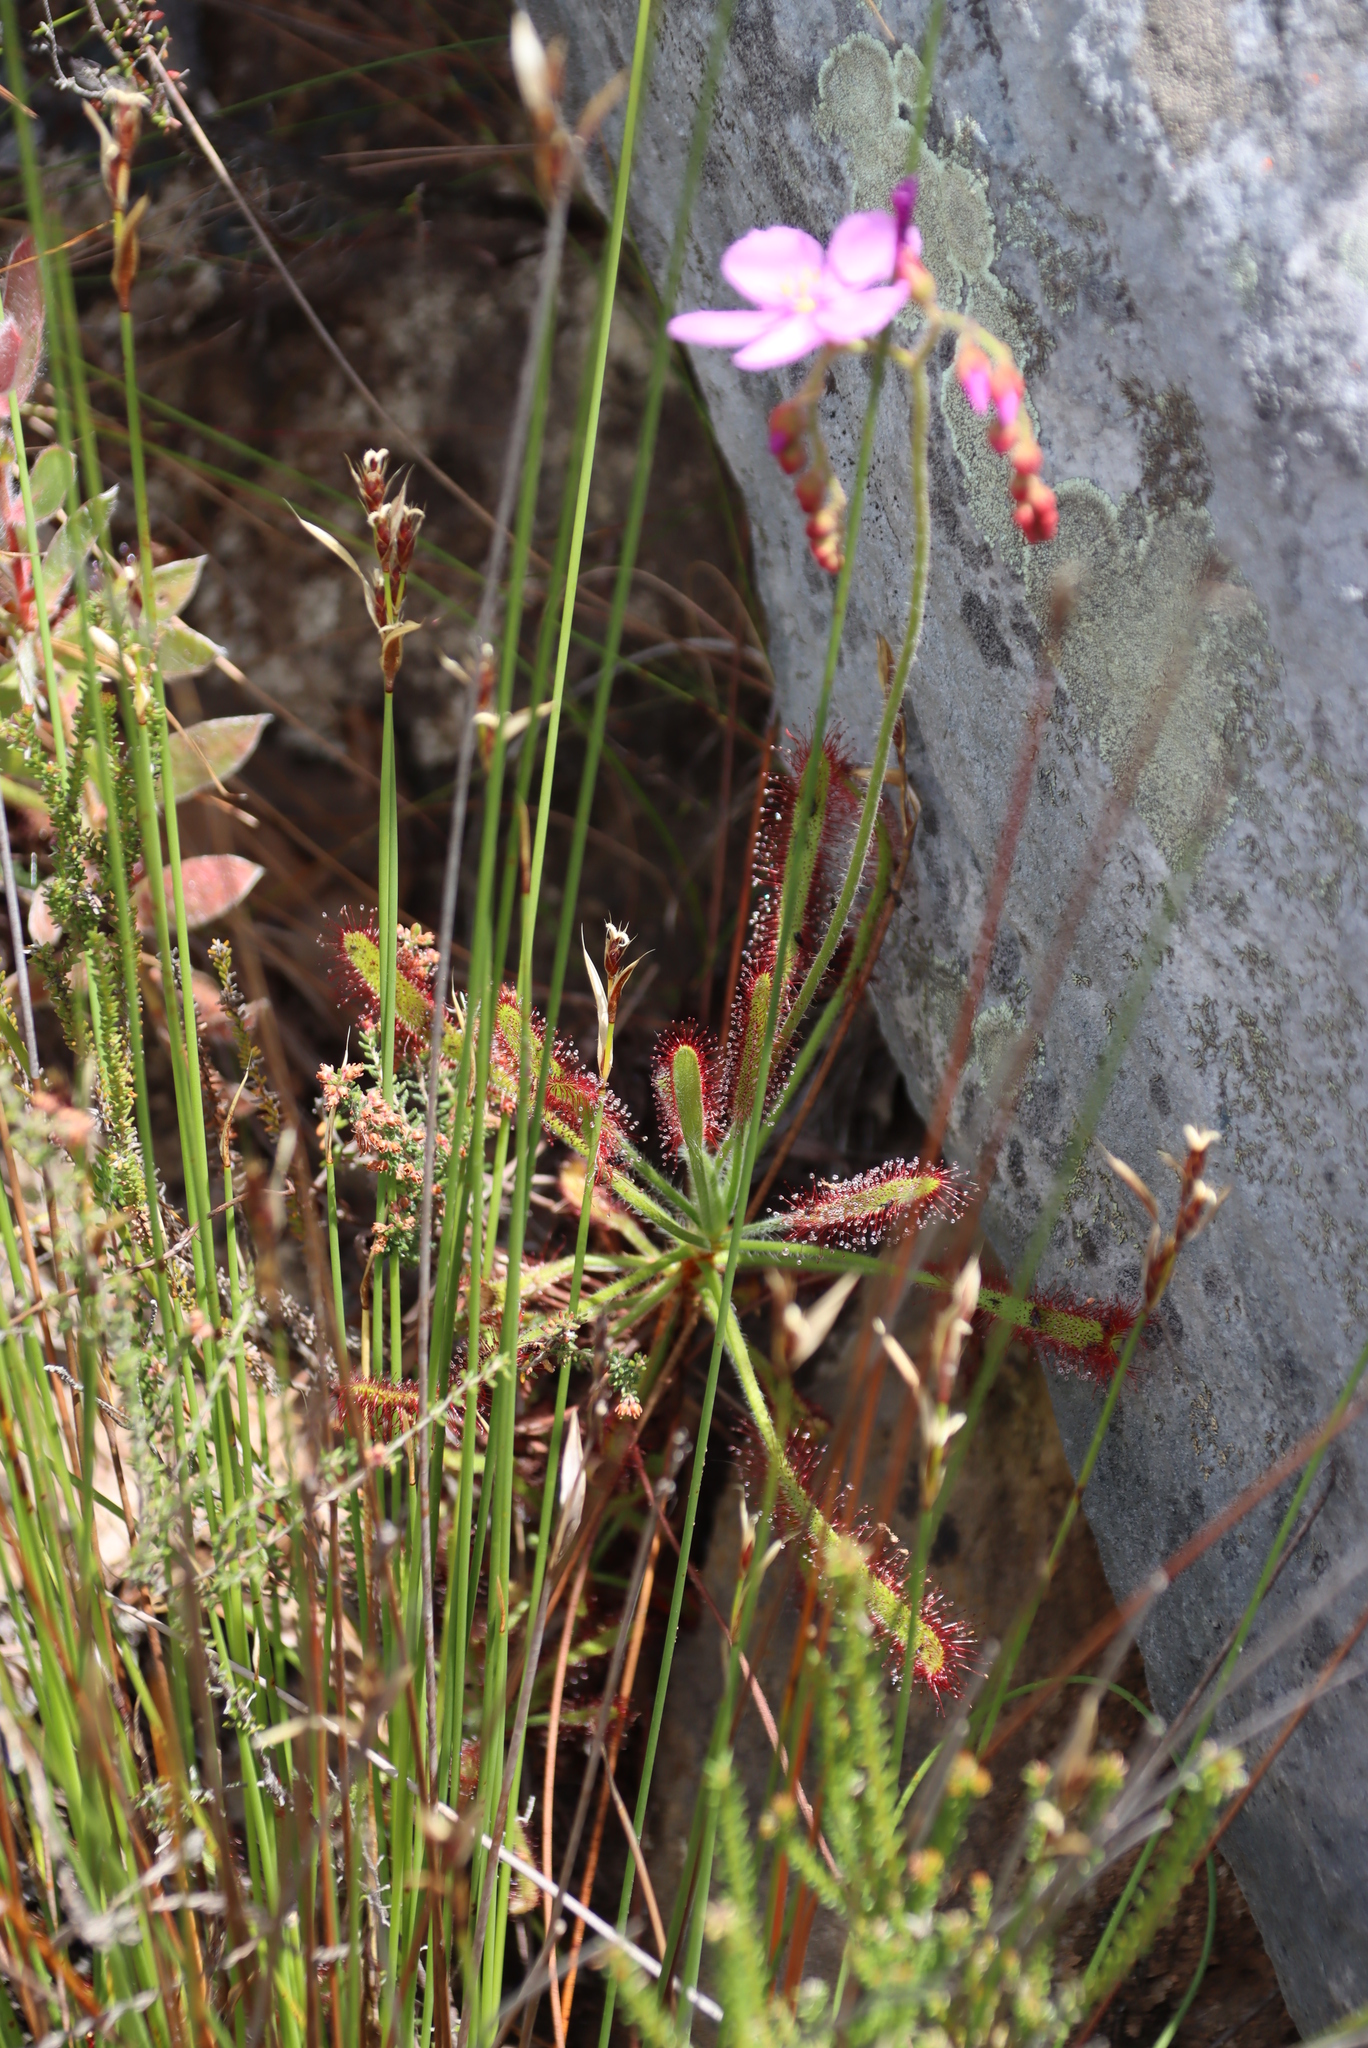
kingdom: Plantae
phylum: Tracheophyta
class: Magnoliopsida
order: Caryophyllales
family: Droseraceae
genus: Drosera
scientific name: Drosera ramentacea
